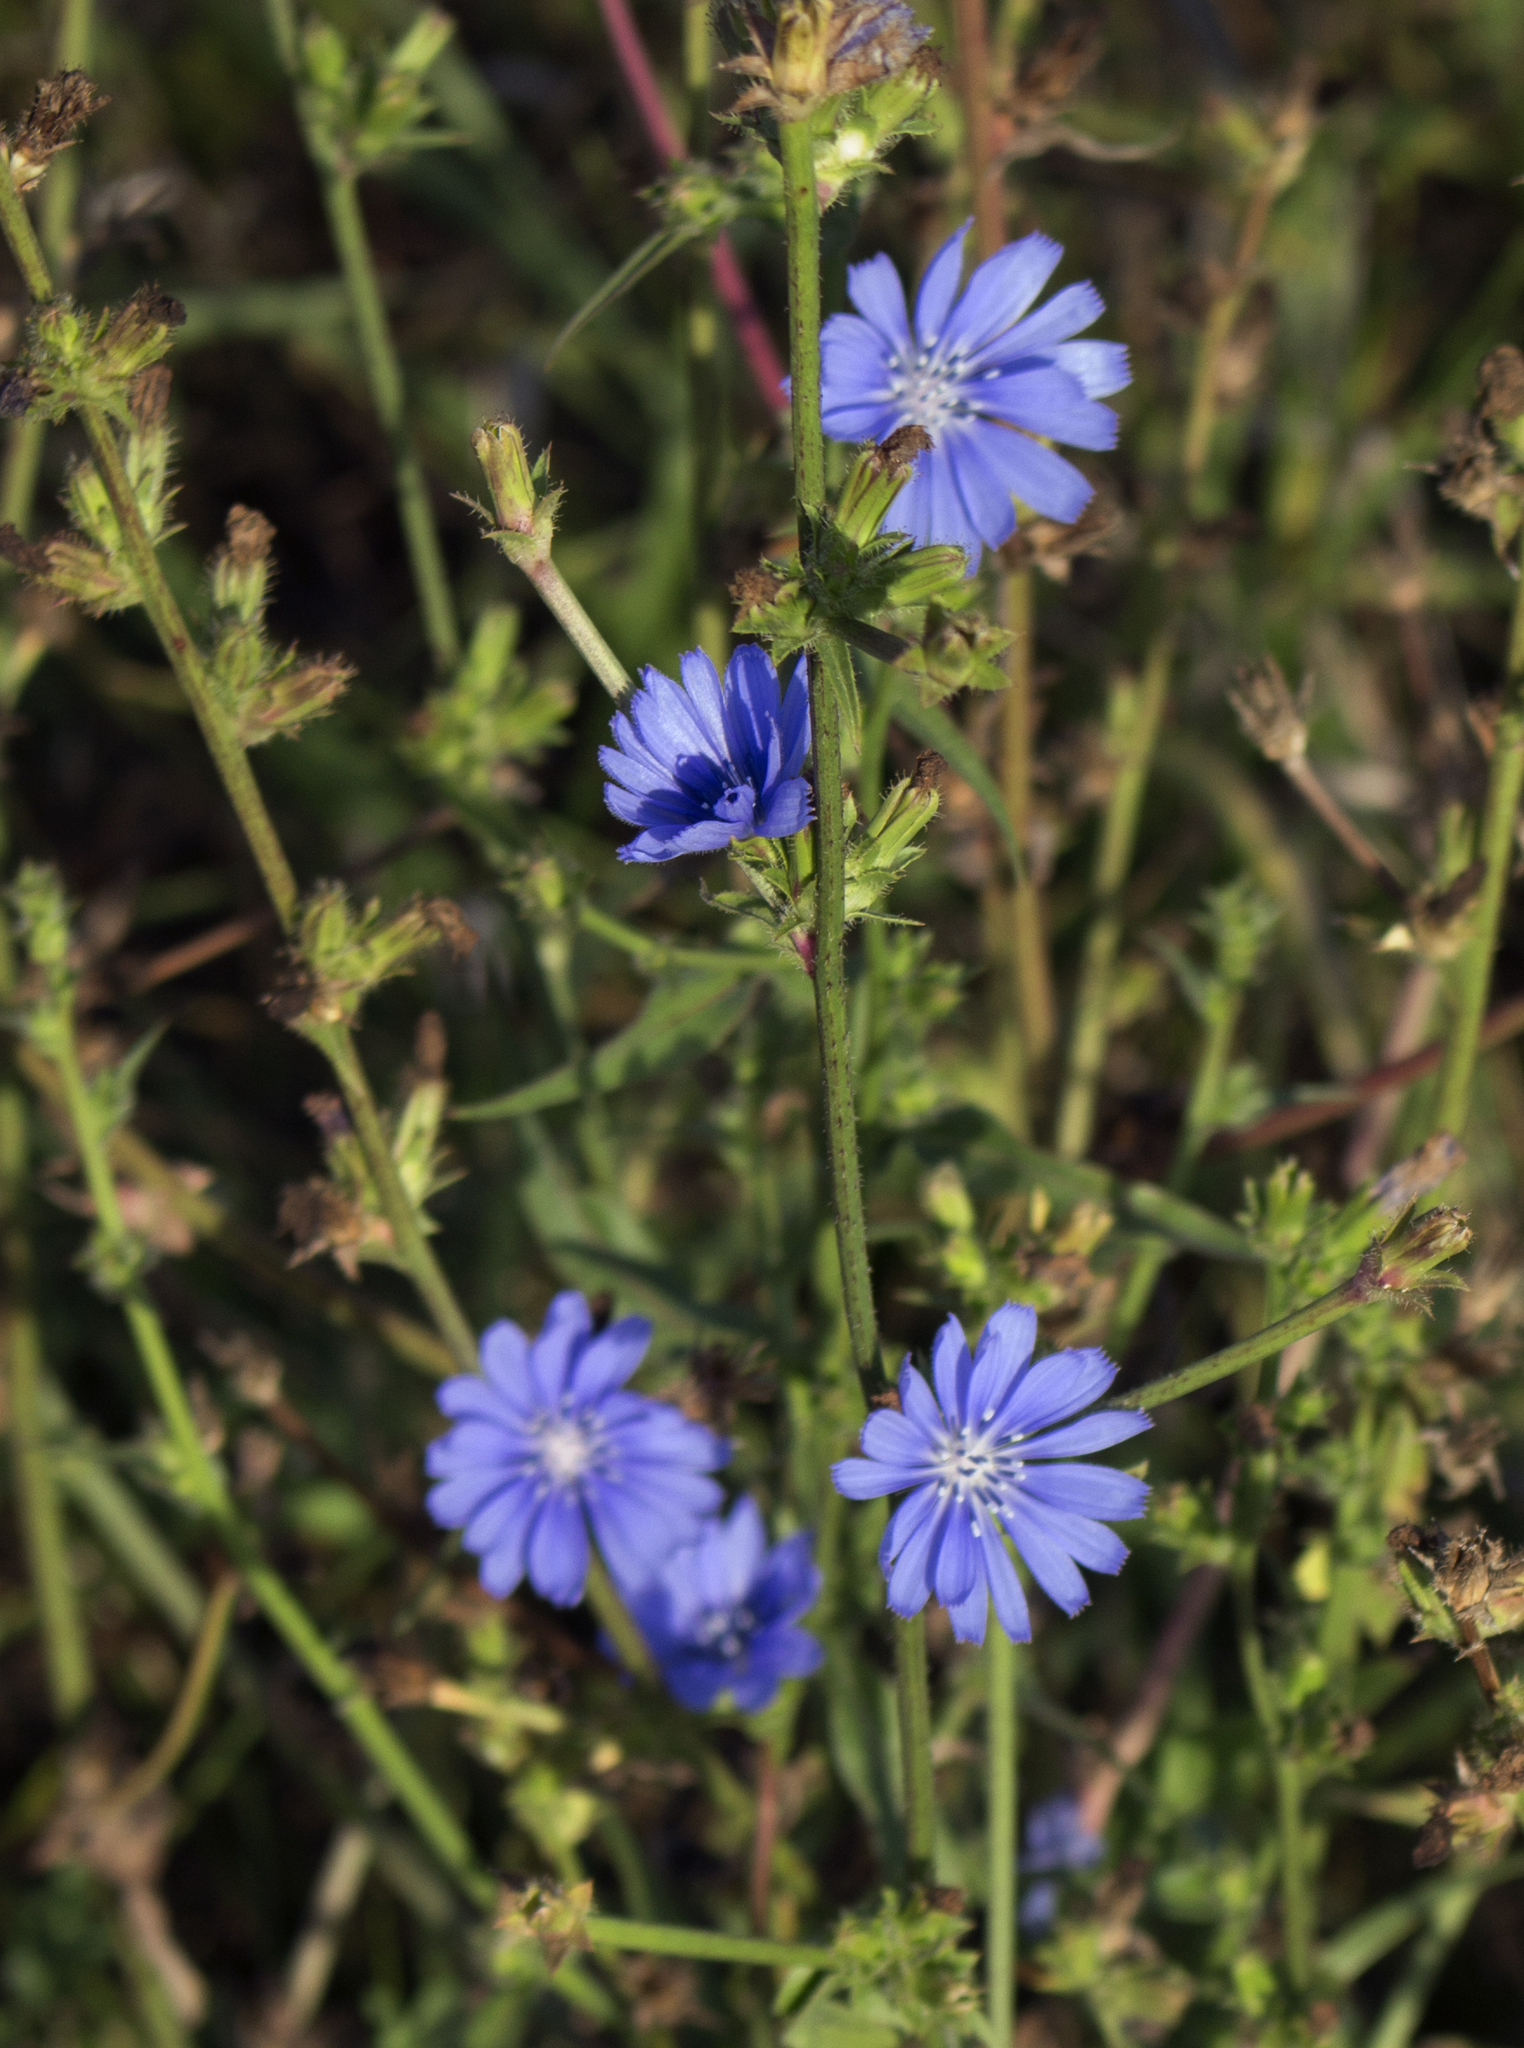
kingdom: Plantae
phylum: Tracheophyta
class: Magnoliopsida
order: Asterales
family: Asteraceae
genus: Cichorium
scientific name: Cichorium intybus
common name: Chicory
